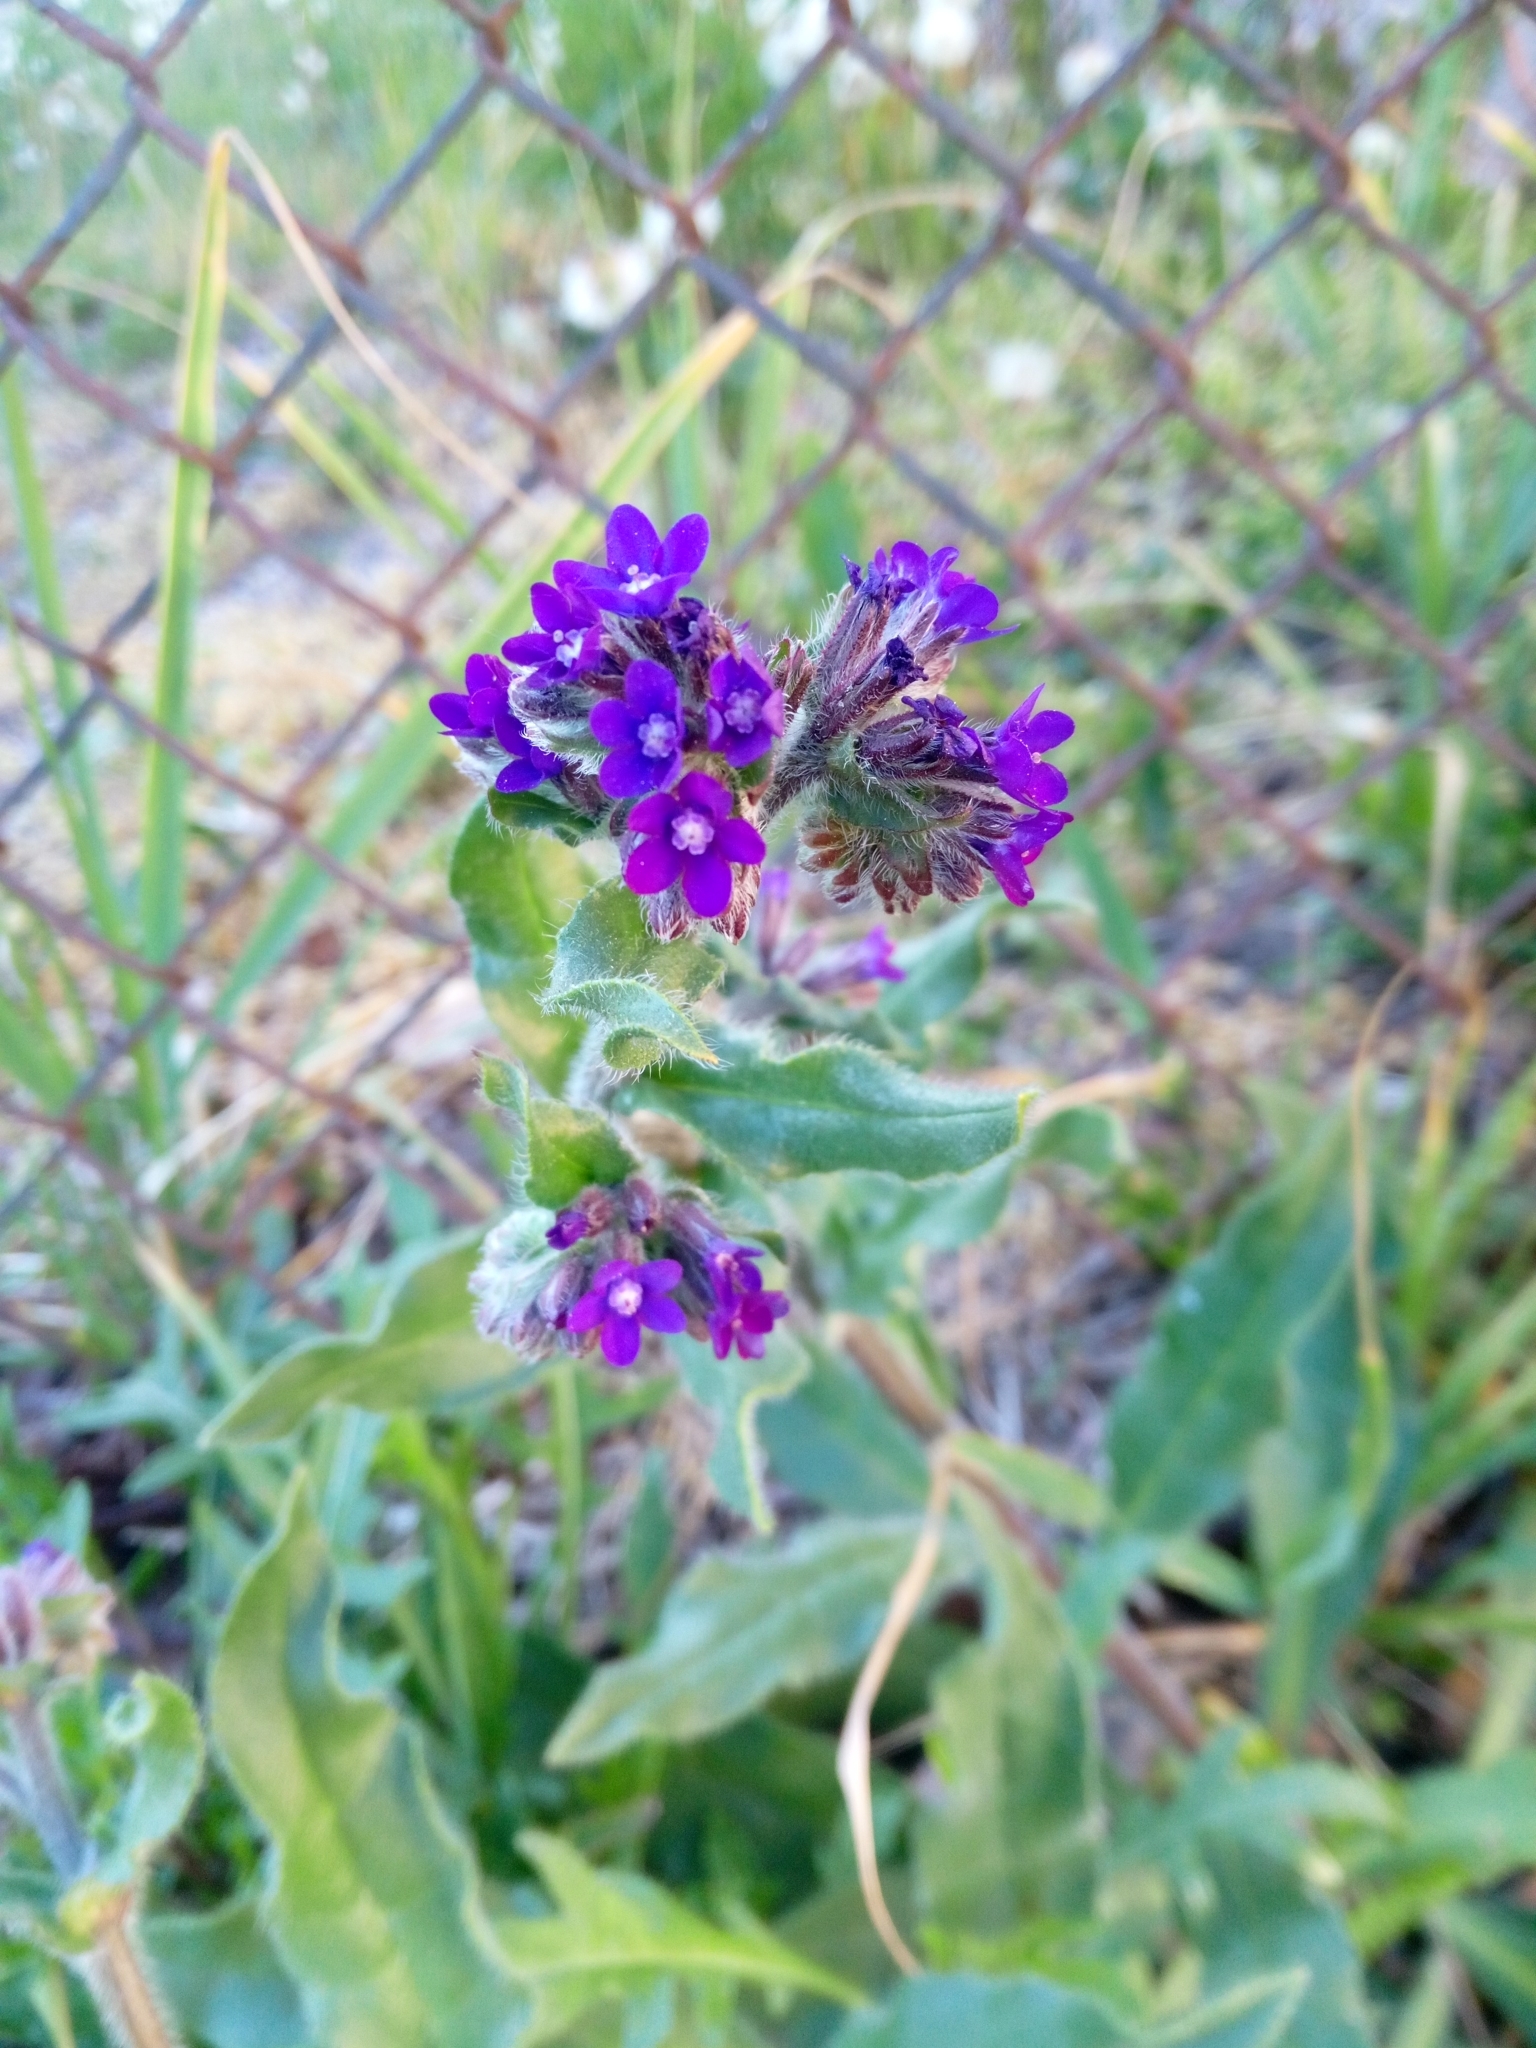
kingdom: Plantae
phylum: Tracheophyta
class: Magnoliopsida
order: Boraginales
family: Boraginaceae
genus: Anchusa
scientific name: Anchusa officinalis
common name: Alkanet
